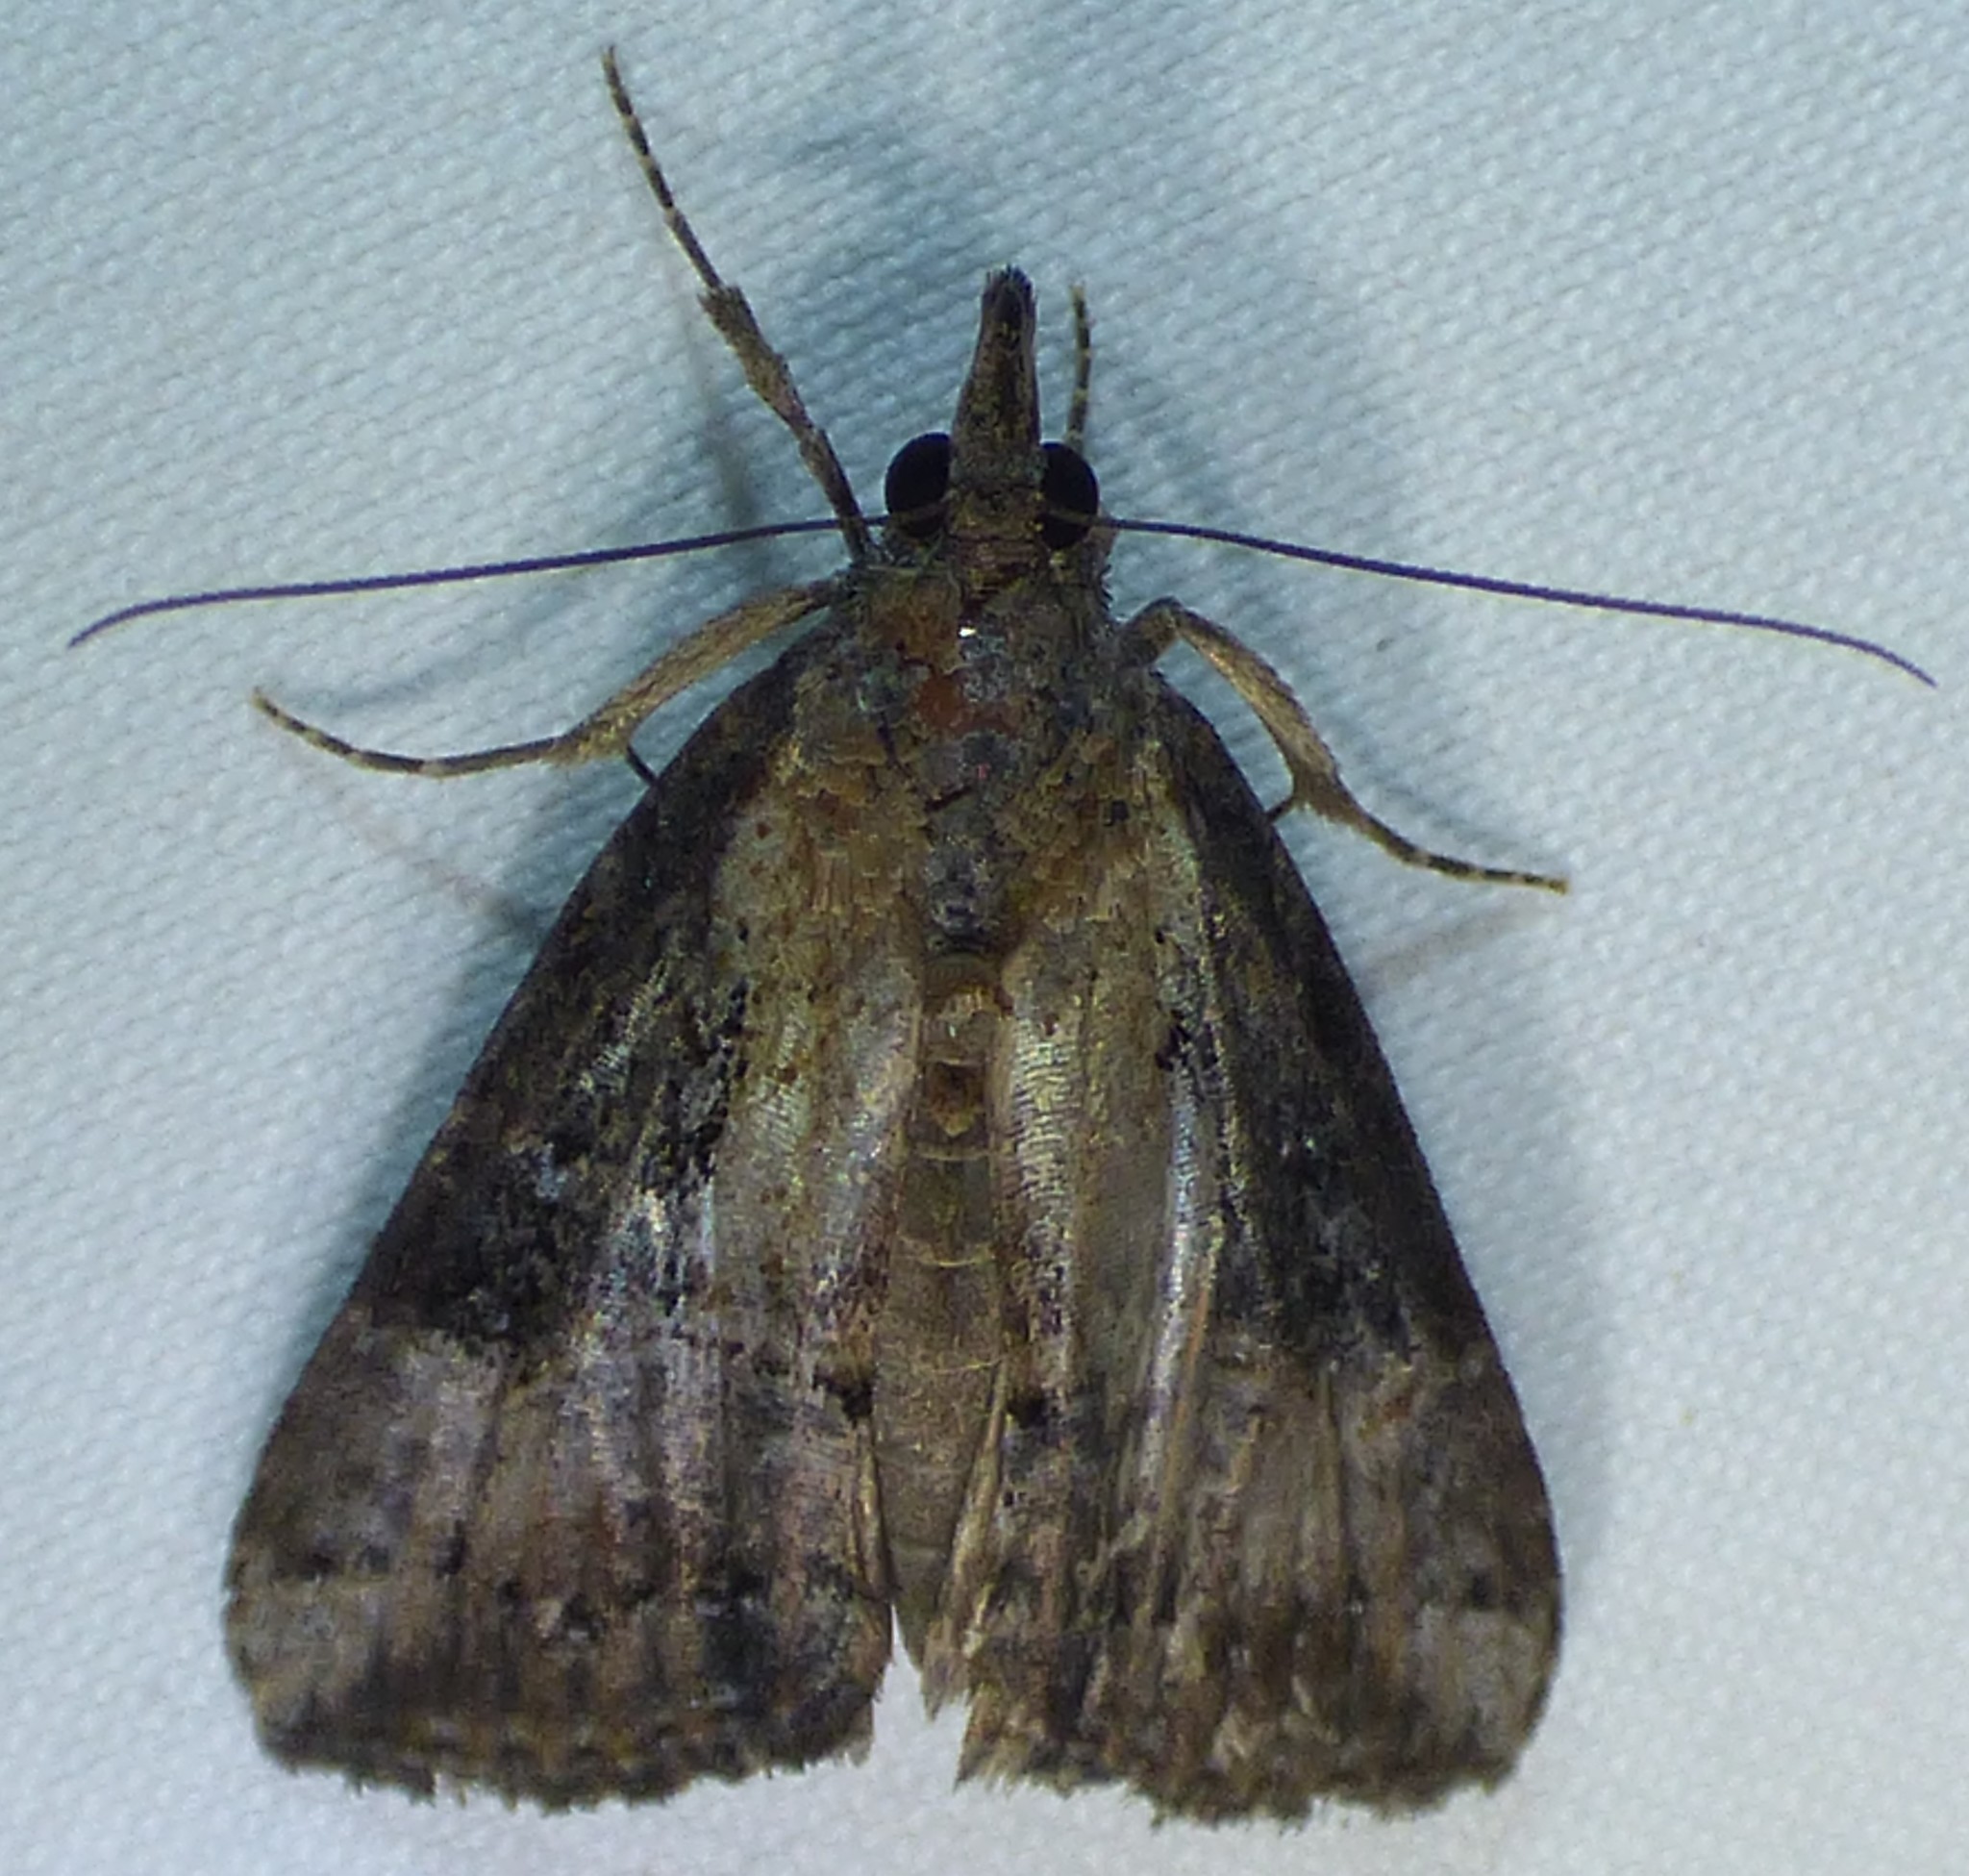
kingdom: Animalia
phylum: Arthropoda
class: Insecta
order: Lepidoptera
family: Erebidae
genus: Hypena
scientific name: Hypena scabra
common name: Green cloverworm
